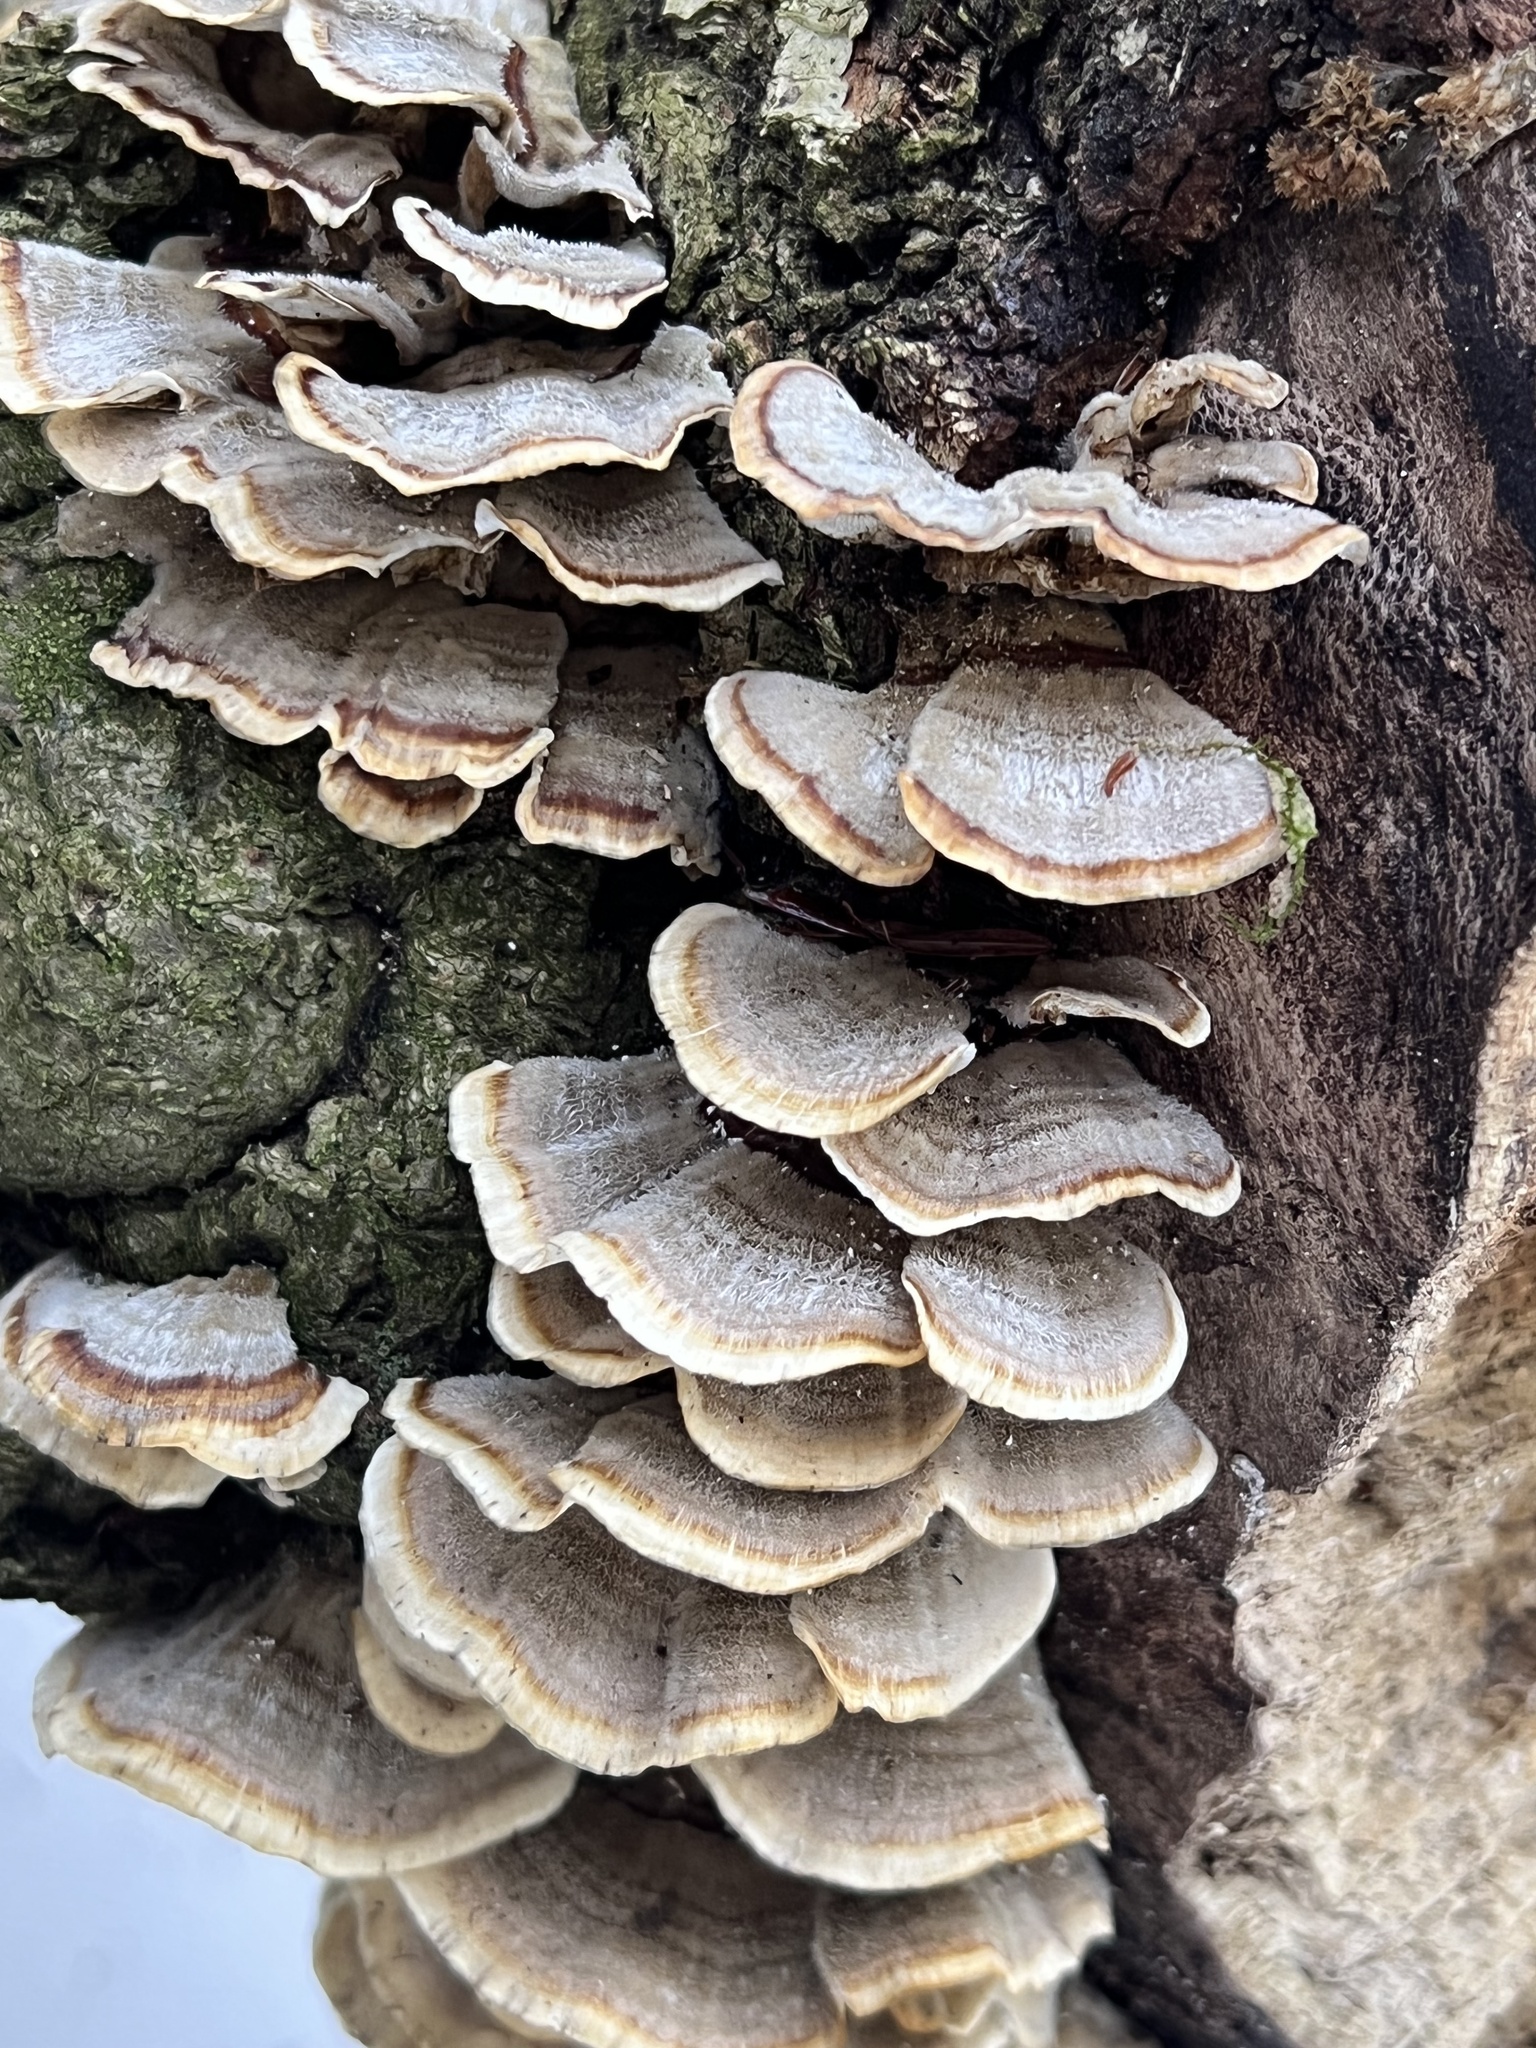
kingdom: Fungi
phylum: Basidiomycota
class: Agaricomycetes
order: Polyporales
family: Polyporaceae
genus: Trametes
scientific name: Trametes versicolor
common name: Turkeytail
